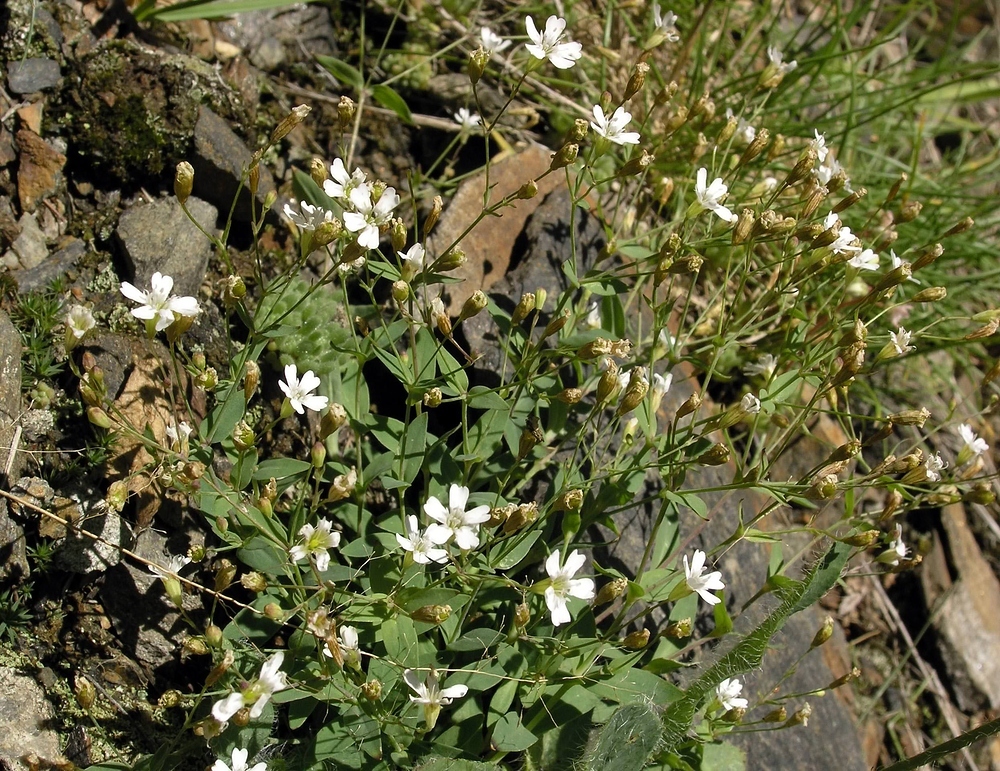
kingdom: Plantae
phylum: Tracheophyta
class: Magnoliopsida
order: Caryophyllales
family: Caryophyllaceae
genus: Atocion
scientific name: Atocion rupestre
